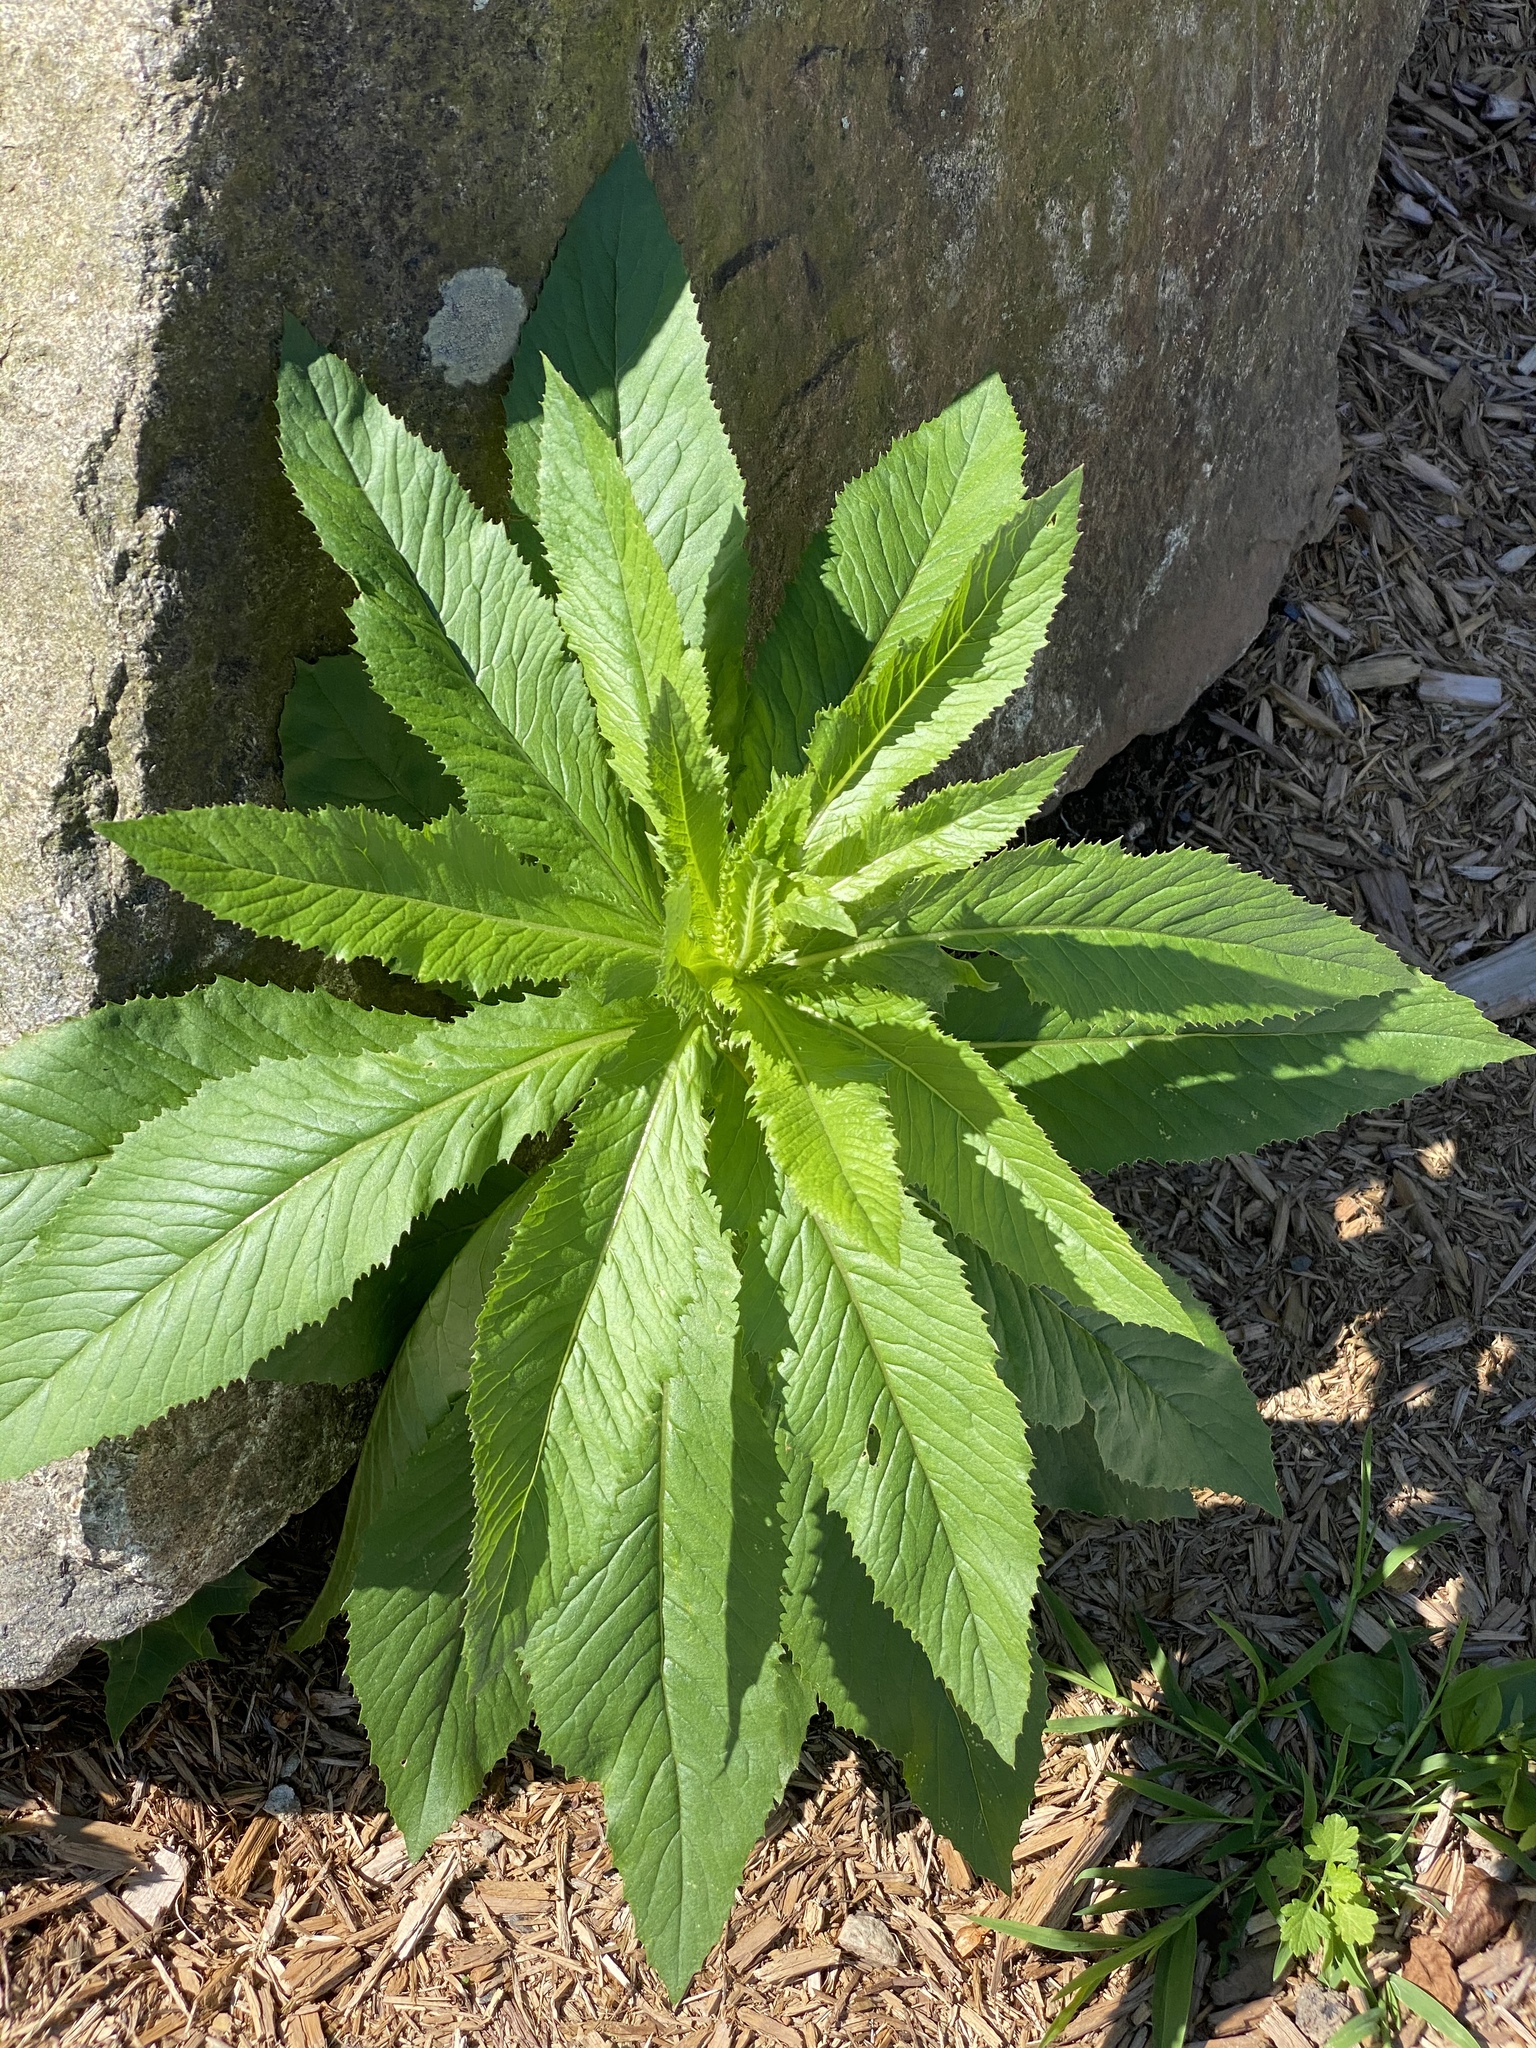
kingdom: Plantae
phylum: Tracheophyta
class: Magnoliopsida
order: Asterales
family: Asteraceae
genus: Erechtites
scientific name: Erechtites hieraciifolius
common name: American burnweed
